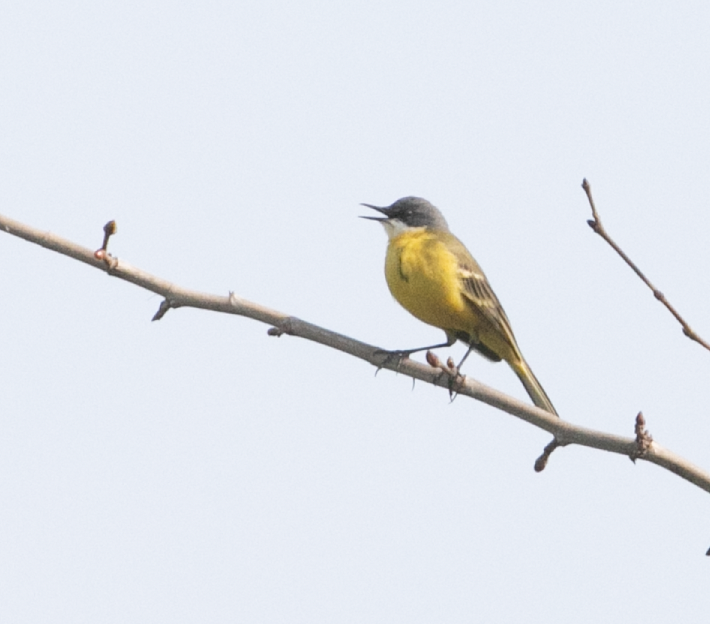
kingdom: Animalia
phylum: Chordata
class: Aves
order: Passeriformes
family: Motacillidae
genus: Motacilla
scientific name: Motacilla flava
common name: Western yellow wagtail
